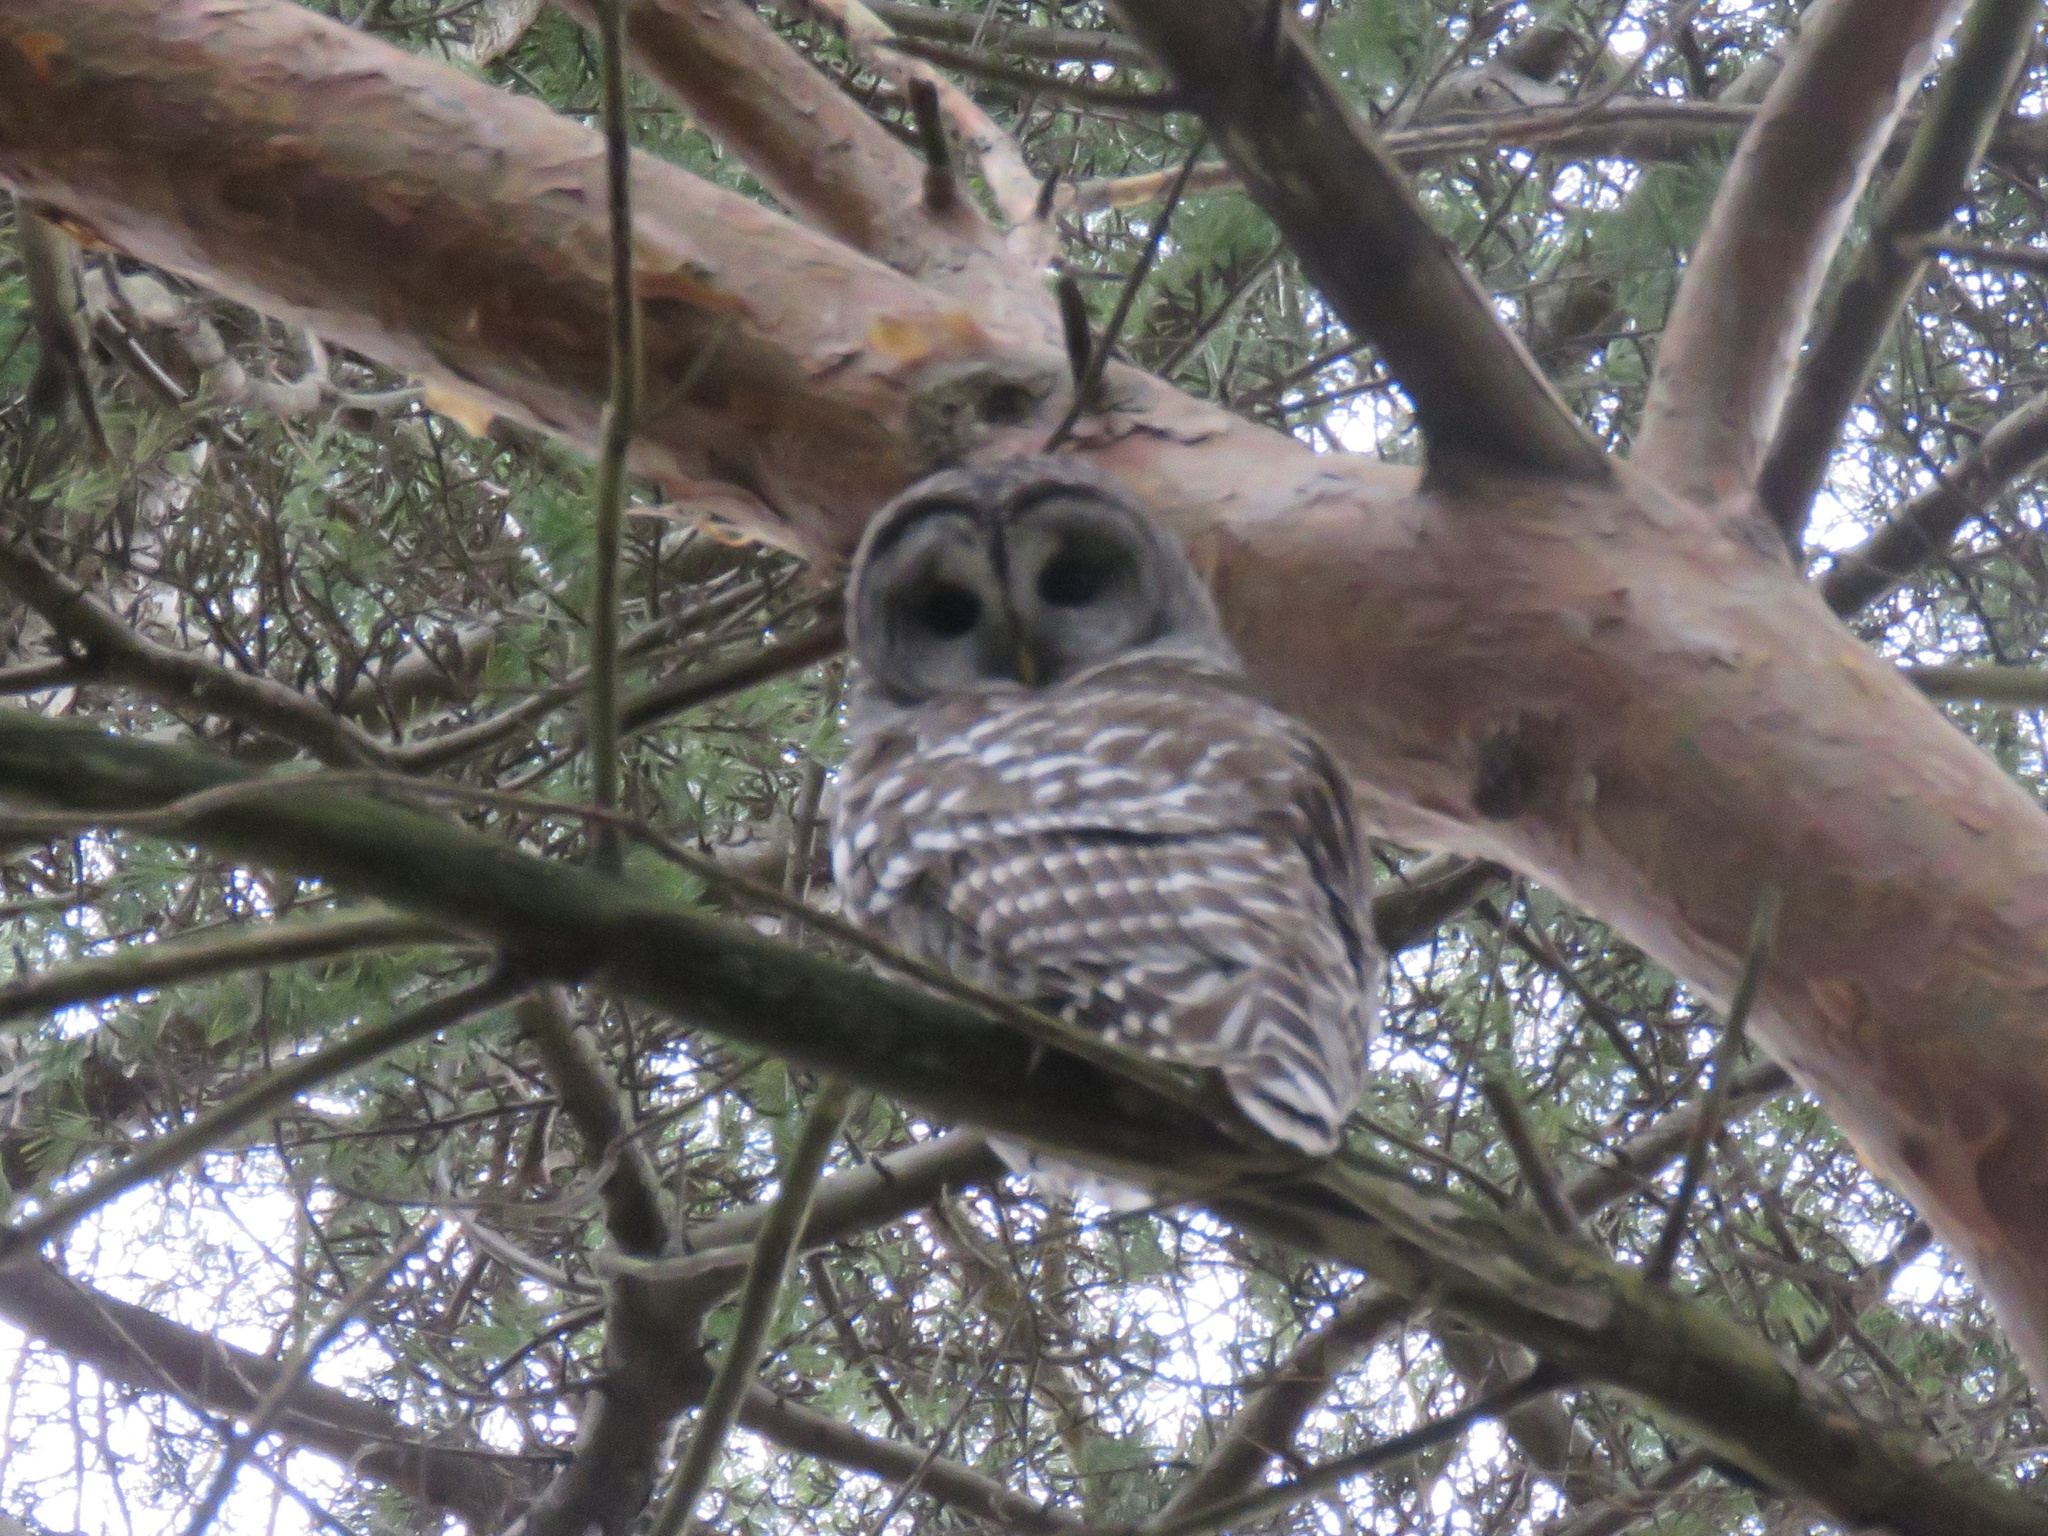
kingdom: Animalia
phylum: Chordata
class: Aves
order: Strigiformes
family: Strigidae
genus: Strix
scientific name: Strix varia
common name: Barred owl
